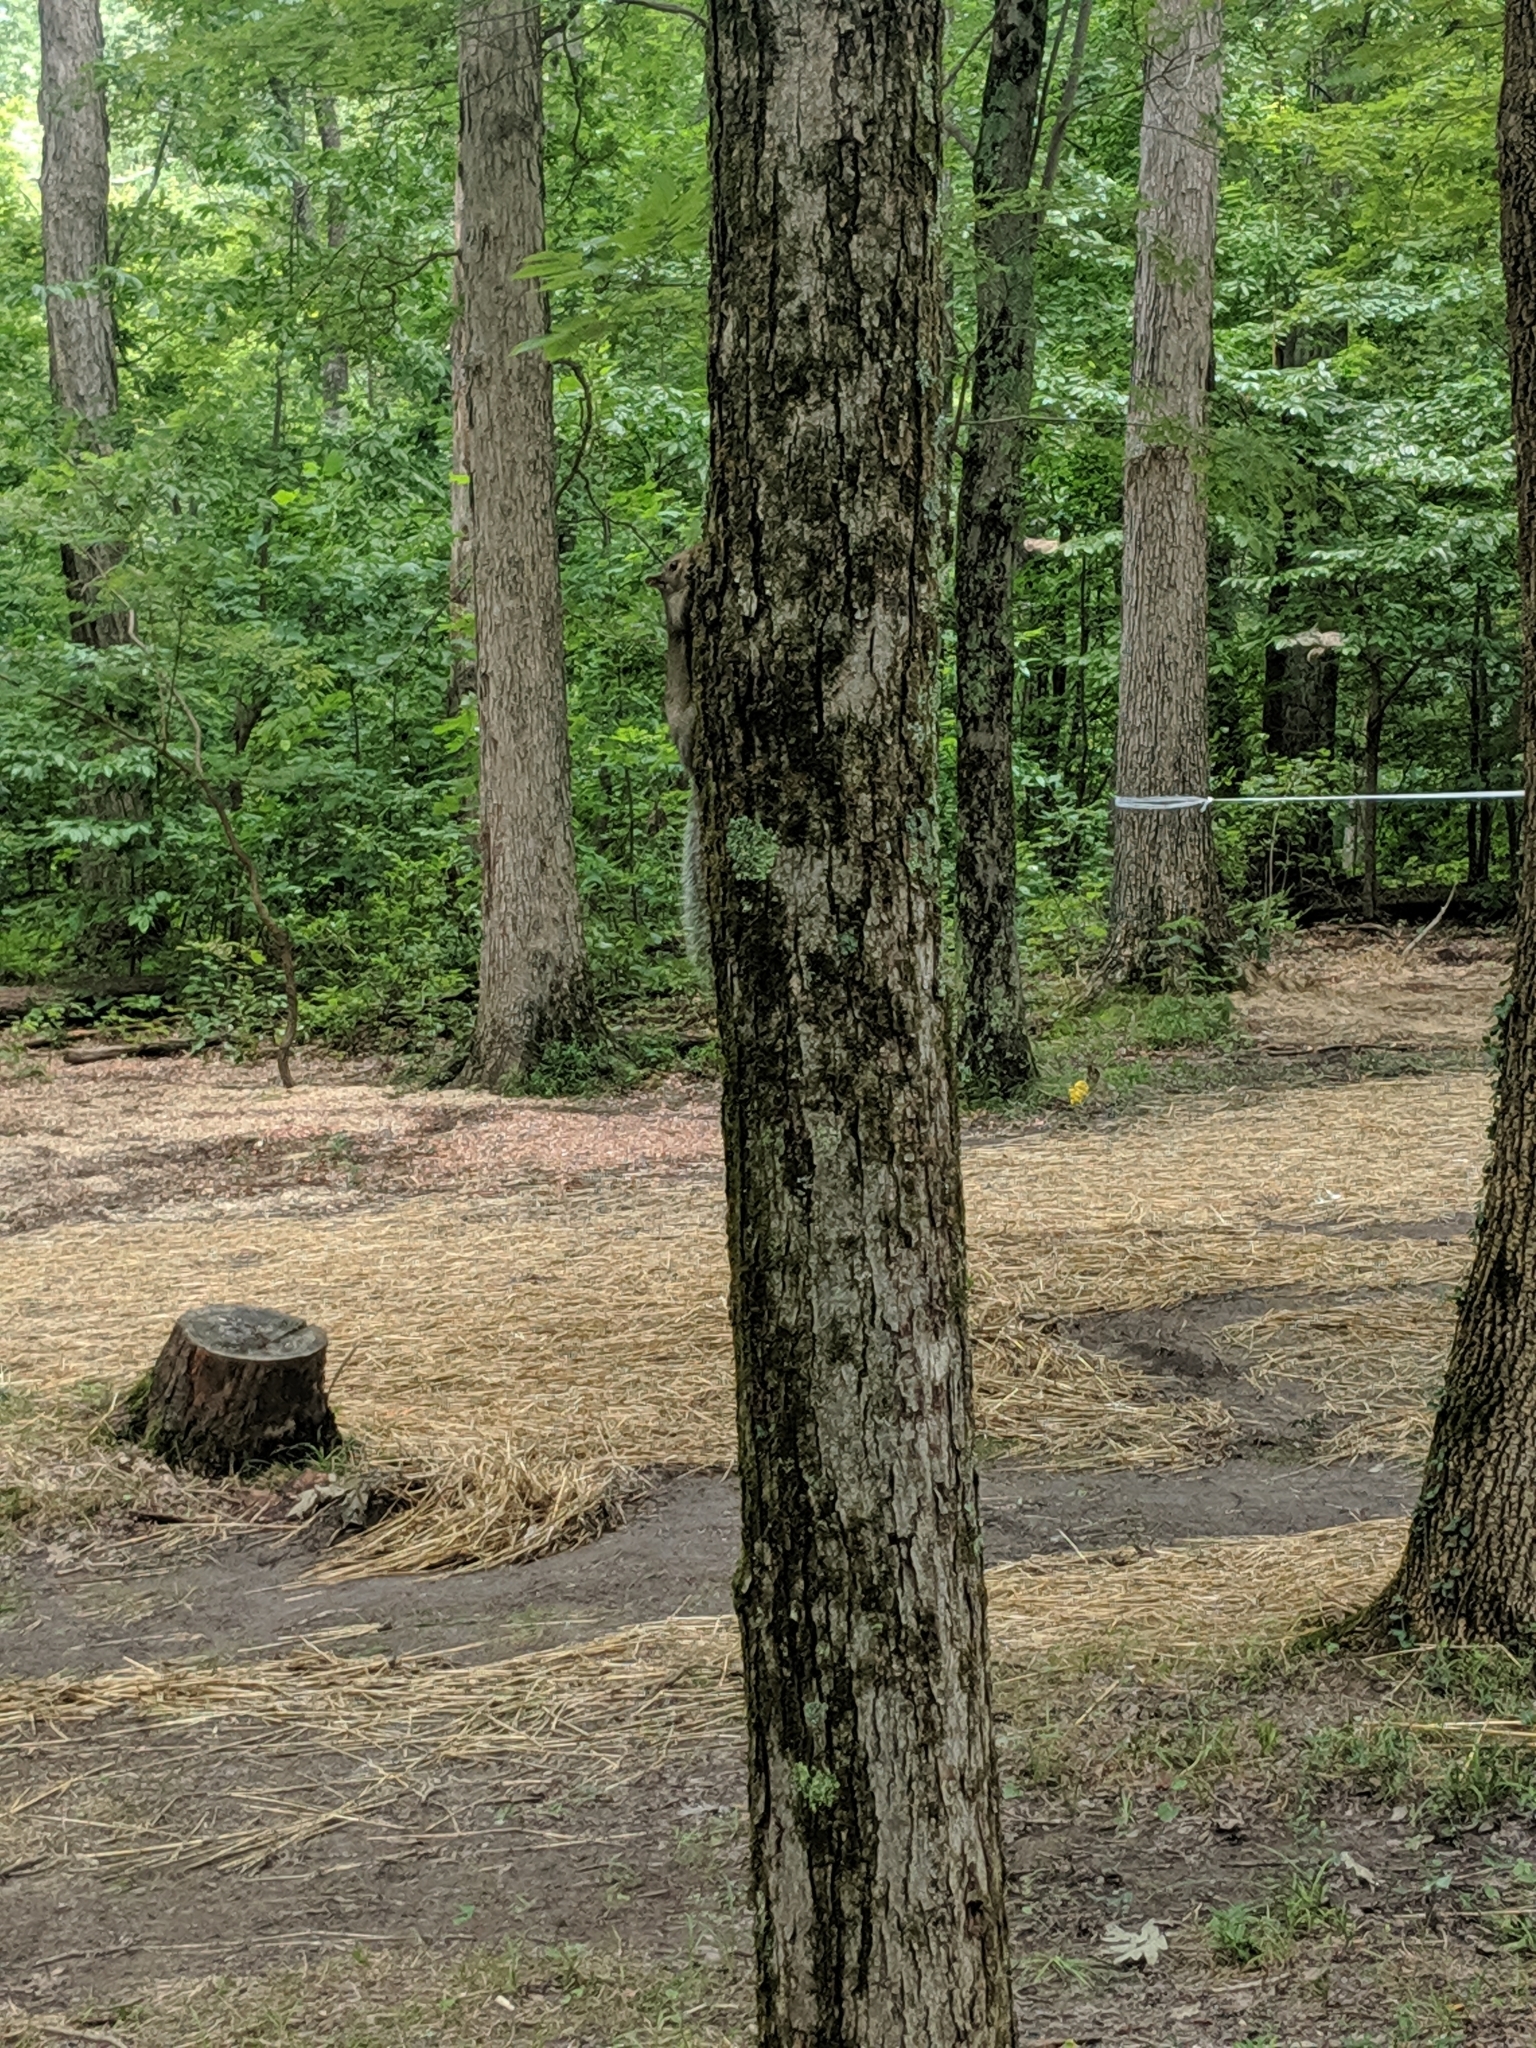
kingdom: Animalia
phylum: Chordata
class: Mammalia
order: Rodentia
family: Sciuridae
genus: Sciurus
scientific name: Sciurus carolinensis
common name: Eastern gray squirrel
